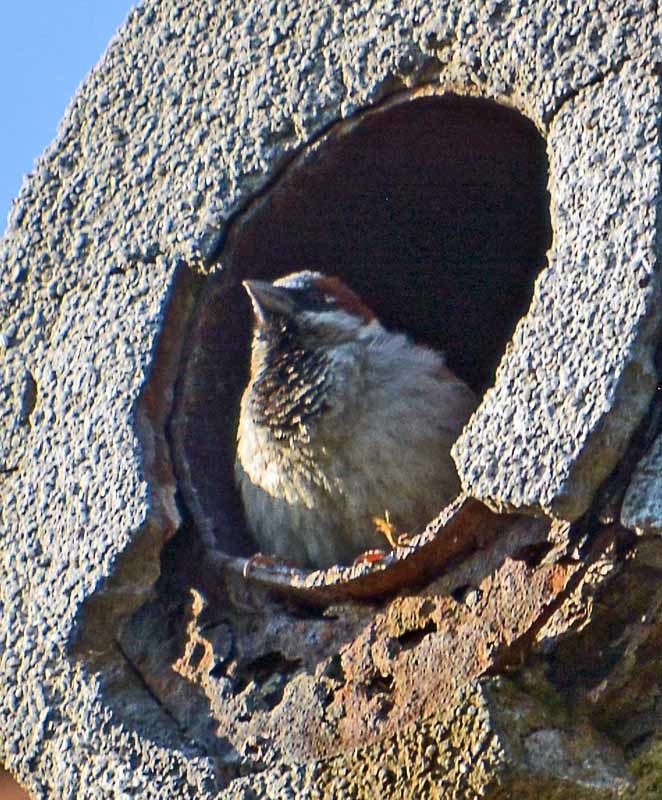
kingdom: Animalia
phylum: Chordata
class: Aves
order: Passeriformes
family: Passeridae
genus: Passer
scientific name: Passer domesticus
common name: House sparrow
